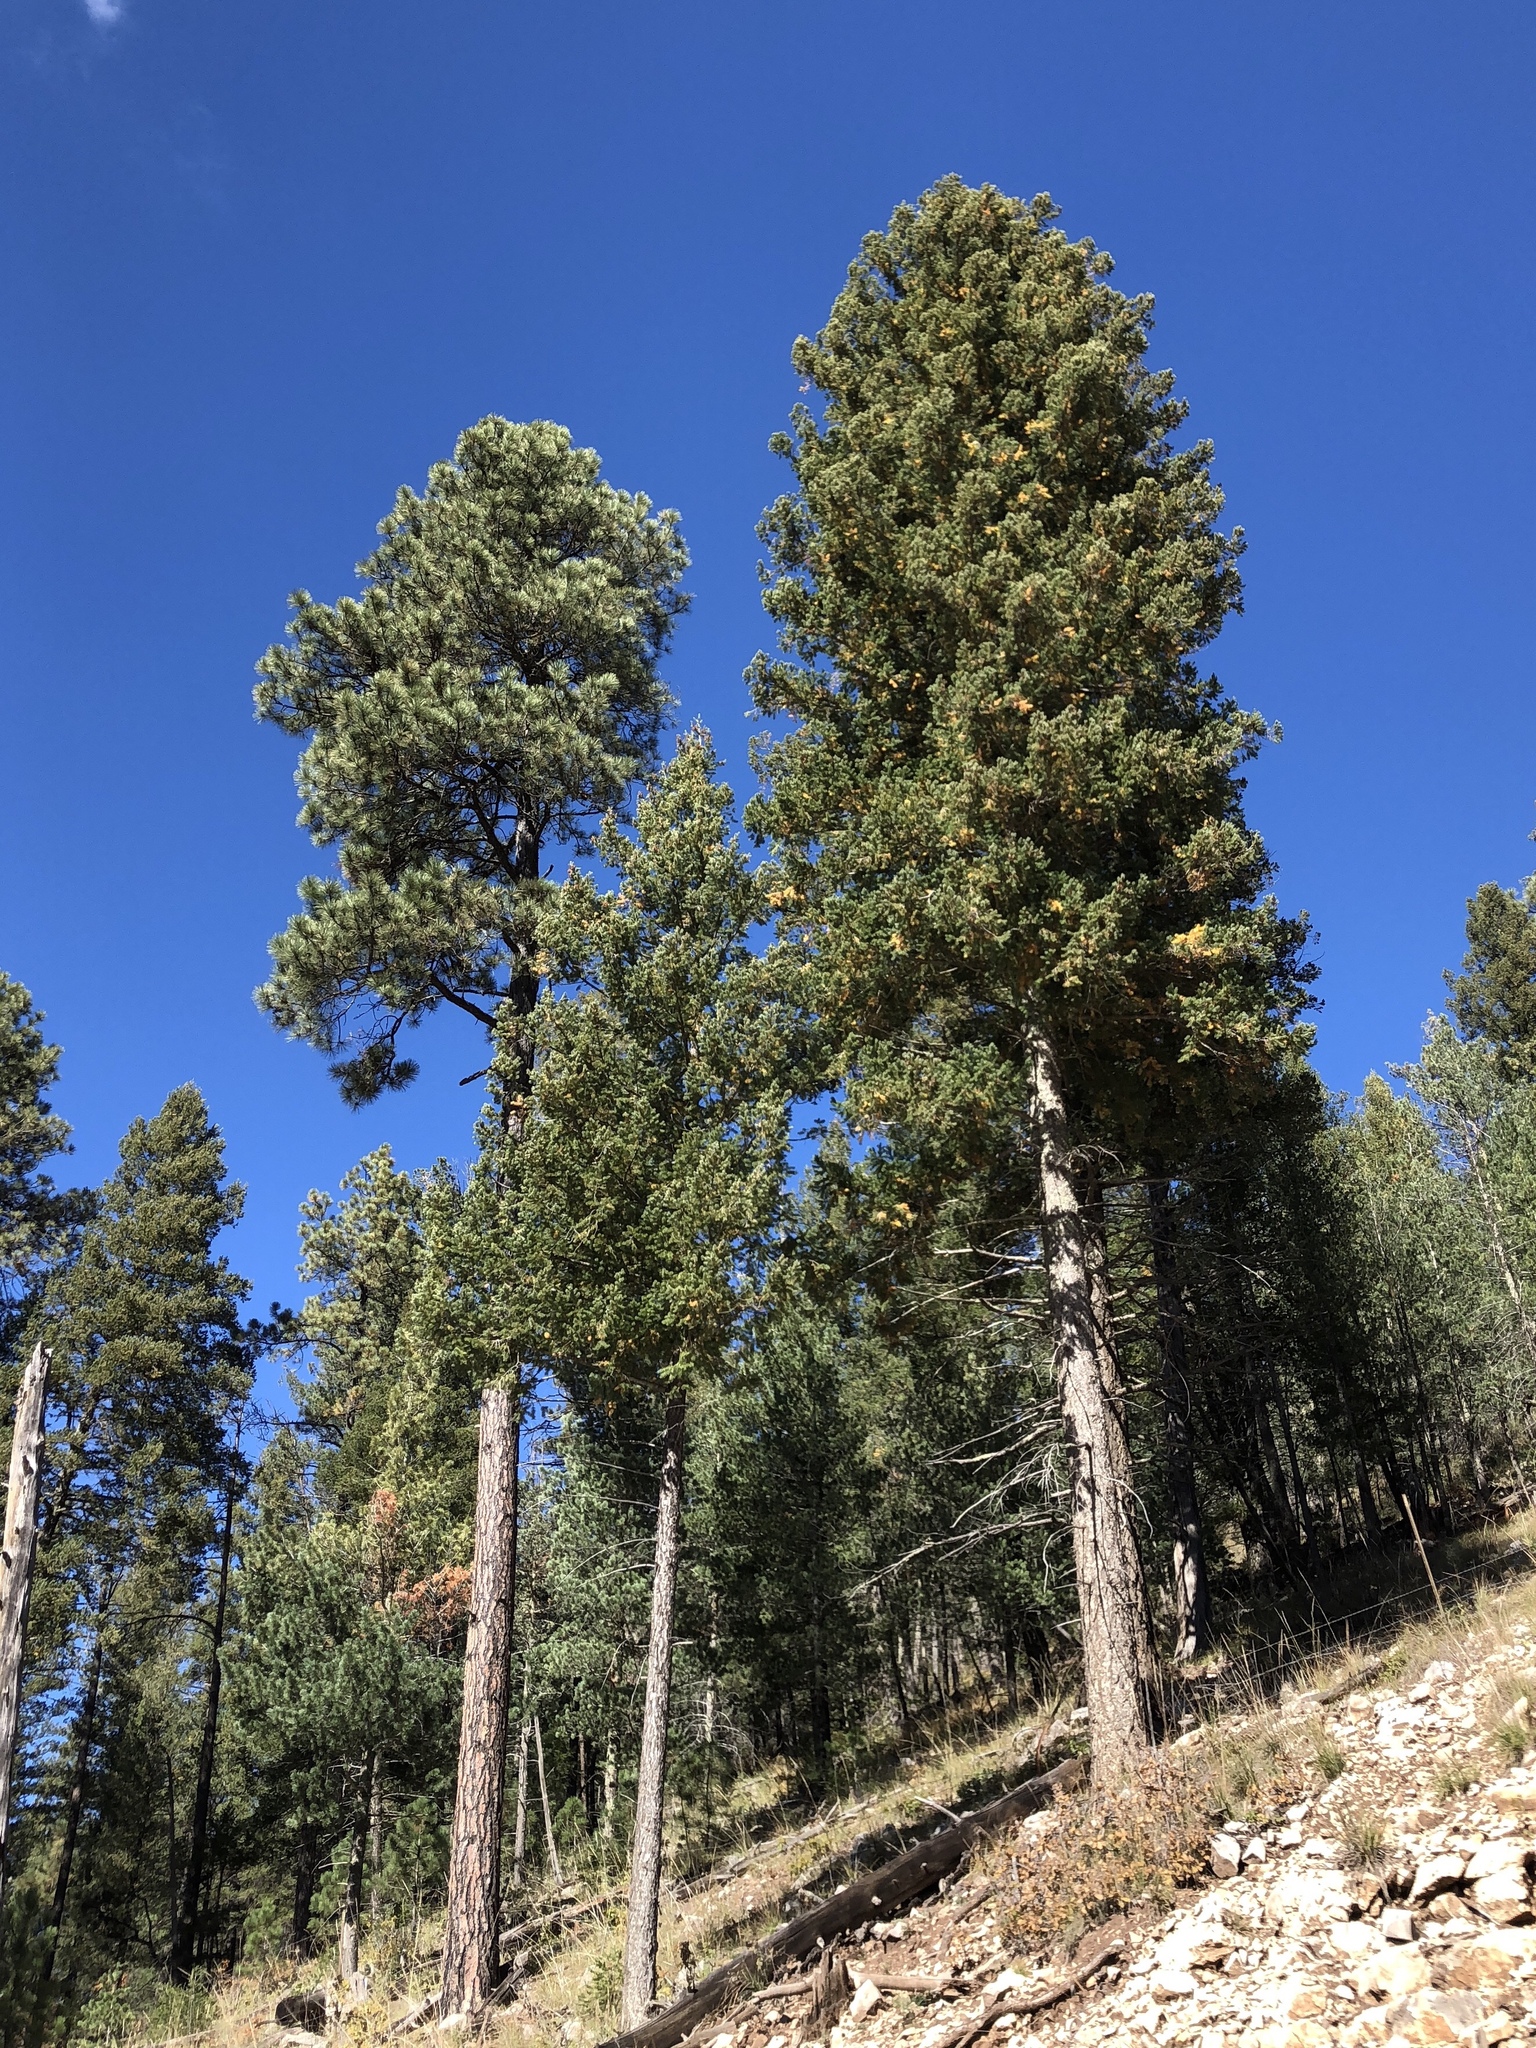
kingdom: Plantae
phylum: Tracheophyta
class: Pinopsida
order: Pinales
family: Pinaceae
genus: Pinus
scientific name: Pinus ponderosa
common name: Western yellow-pine
